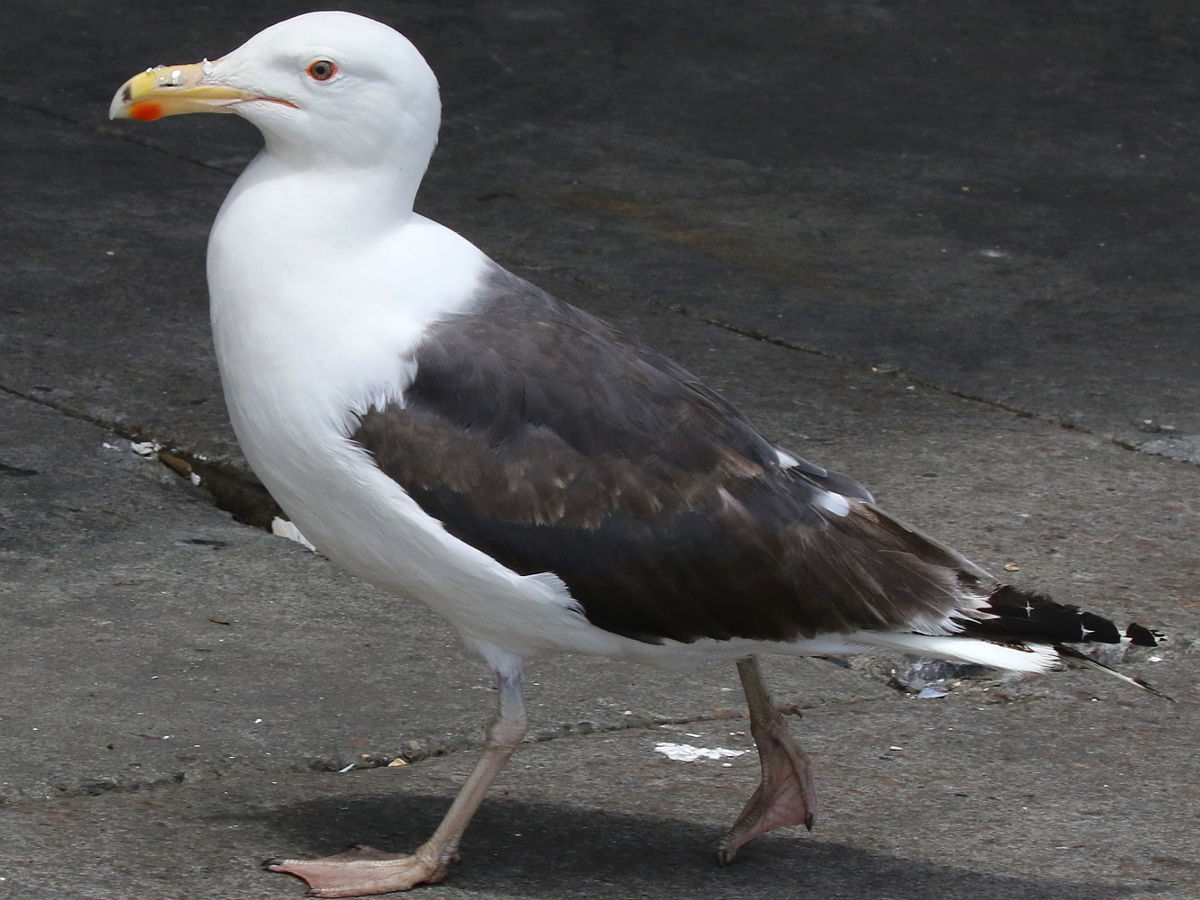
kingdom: Animalia
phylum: Chordata
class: Aves
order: Charadriiformes
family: Laridae
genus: Larus
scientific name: Larus marinus
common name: Great black-backed gull
